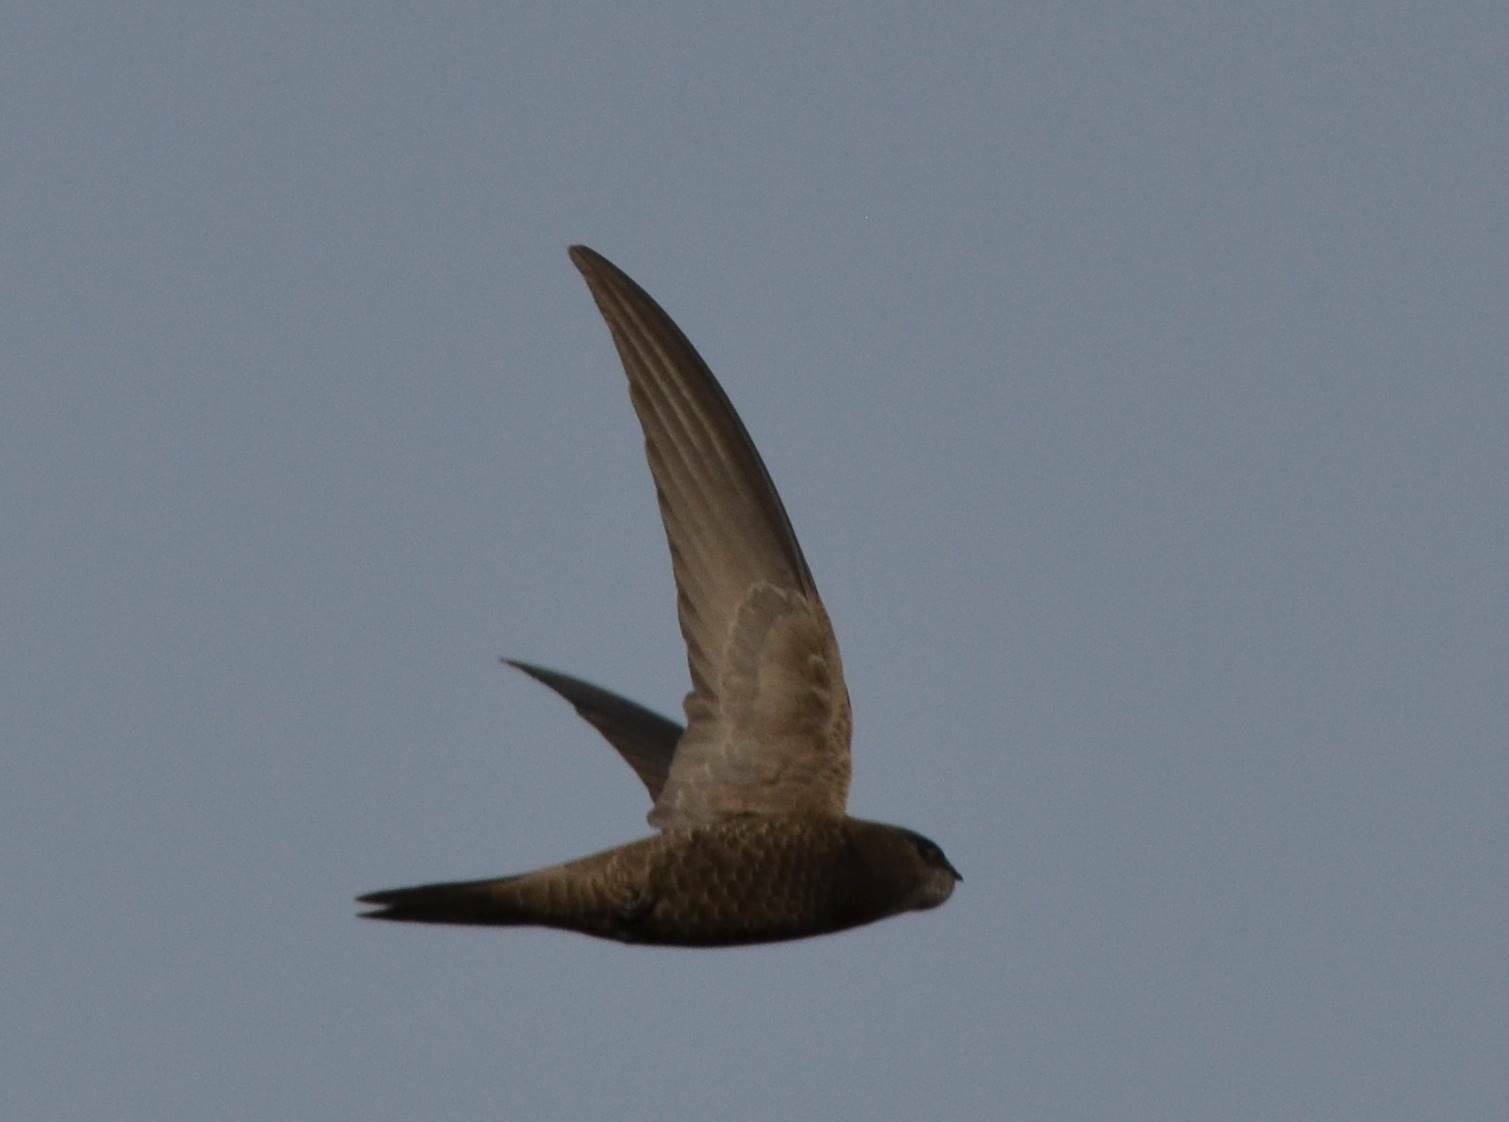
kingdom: Animalia
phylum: Chordata
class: Aves
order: Apodiformes
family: Apodidae
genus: Apus
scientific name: Apus pallidus
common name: Pallid swift
